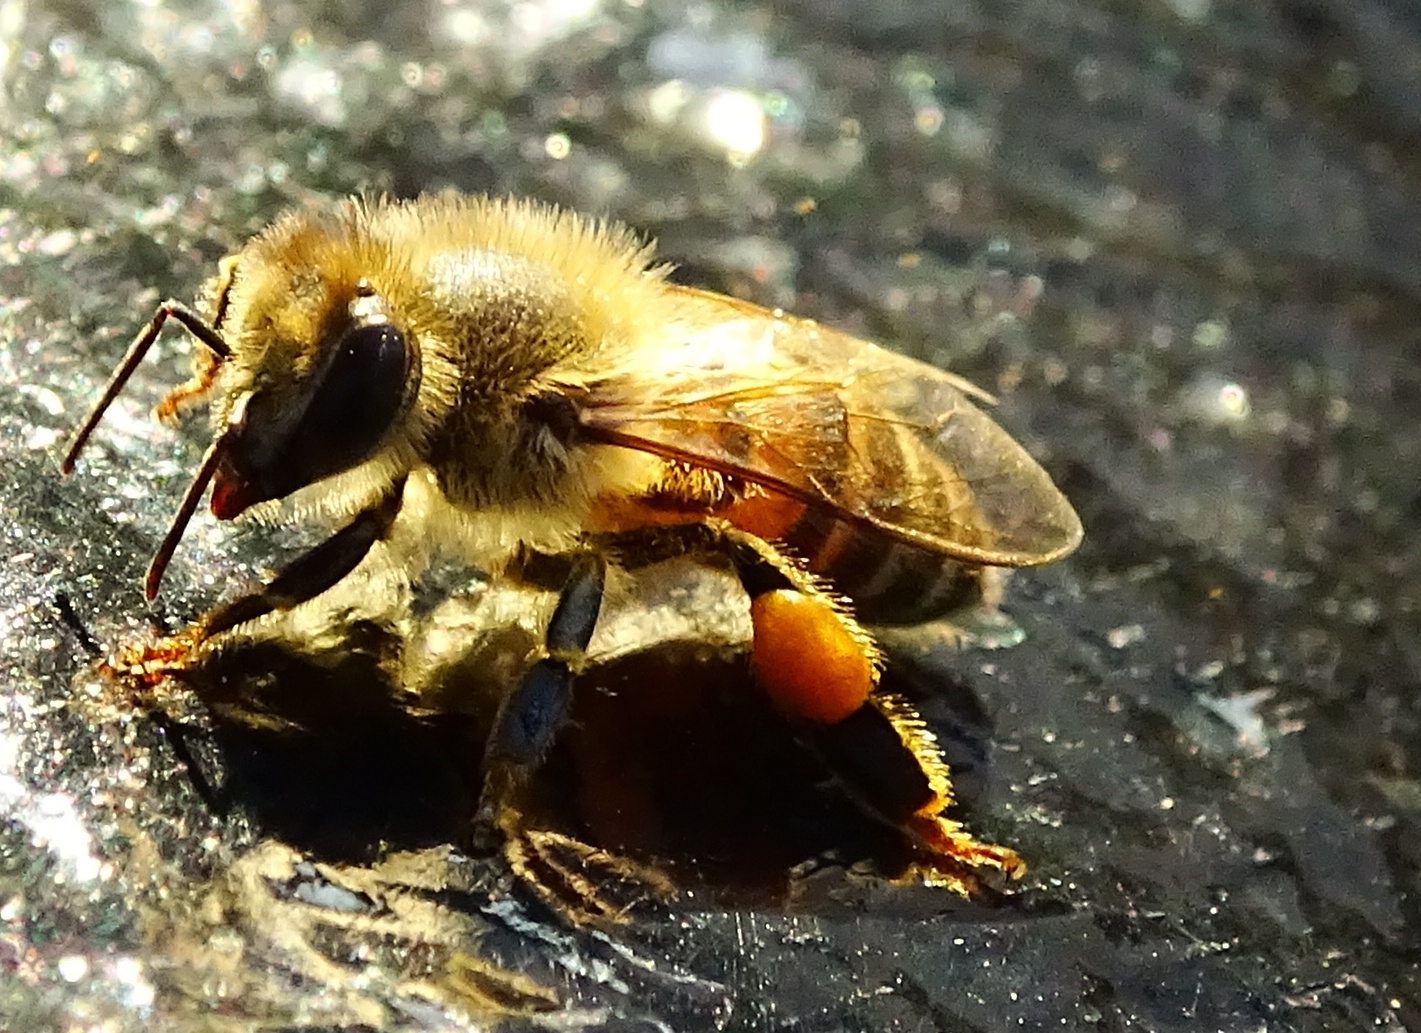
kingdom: Animalia
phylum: Arthropoda
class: Insecta
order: Hymenoptera
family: Apidae
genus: Apis
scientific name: Apis mellifera
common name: Honey bee
